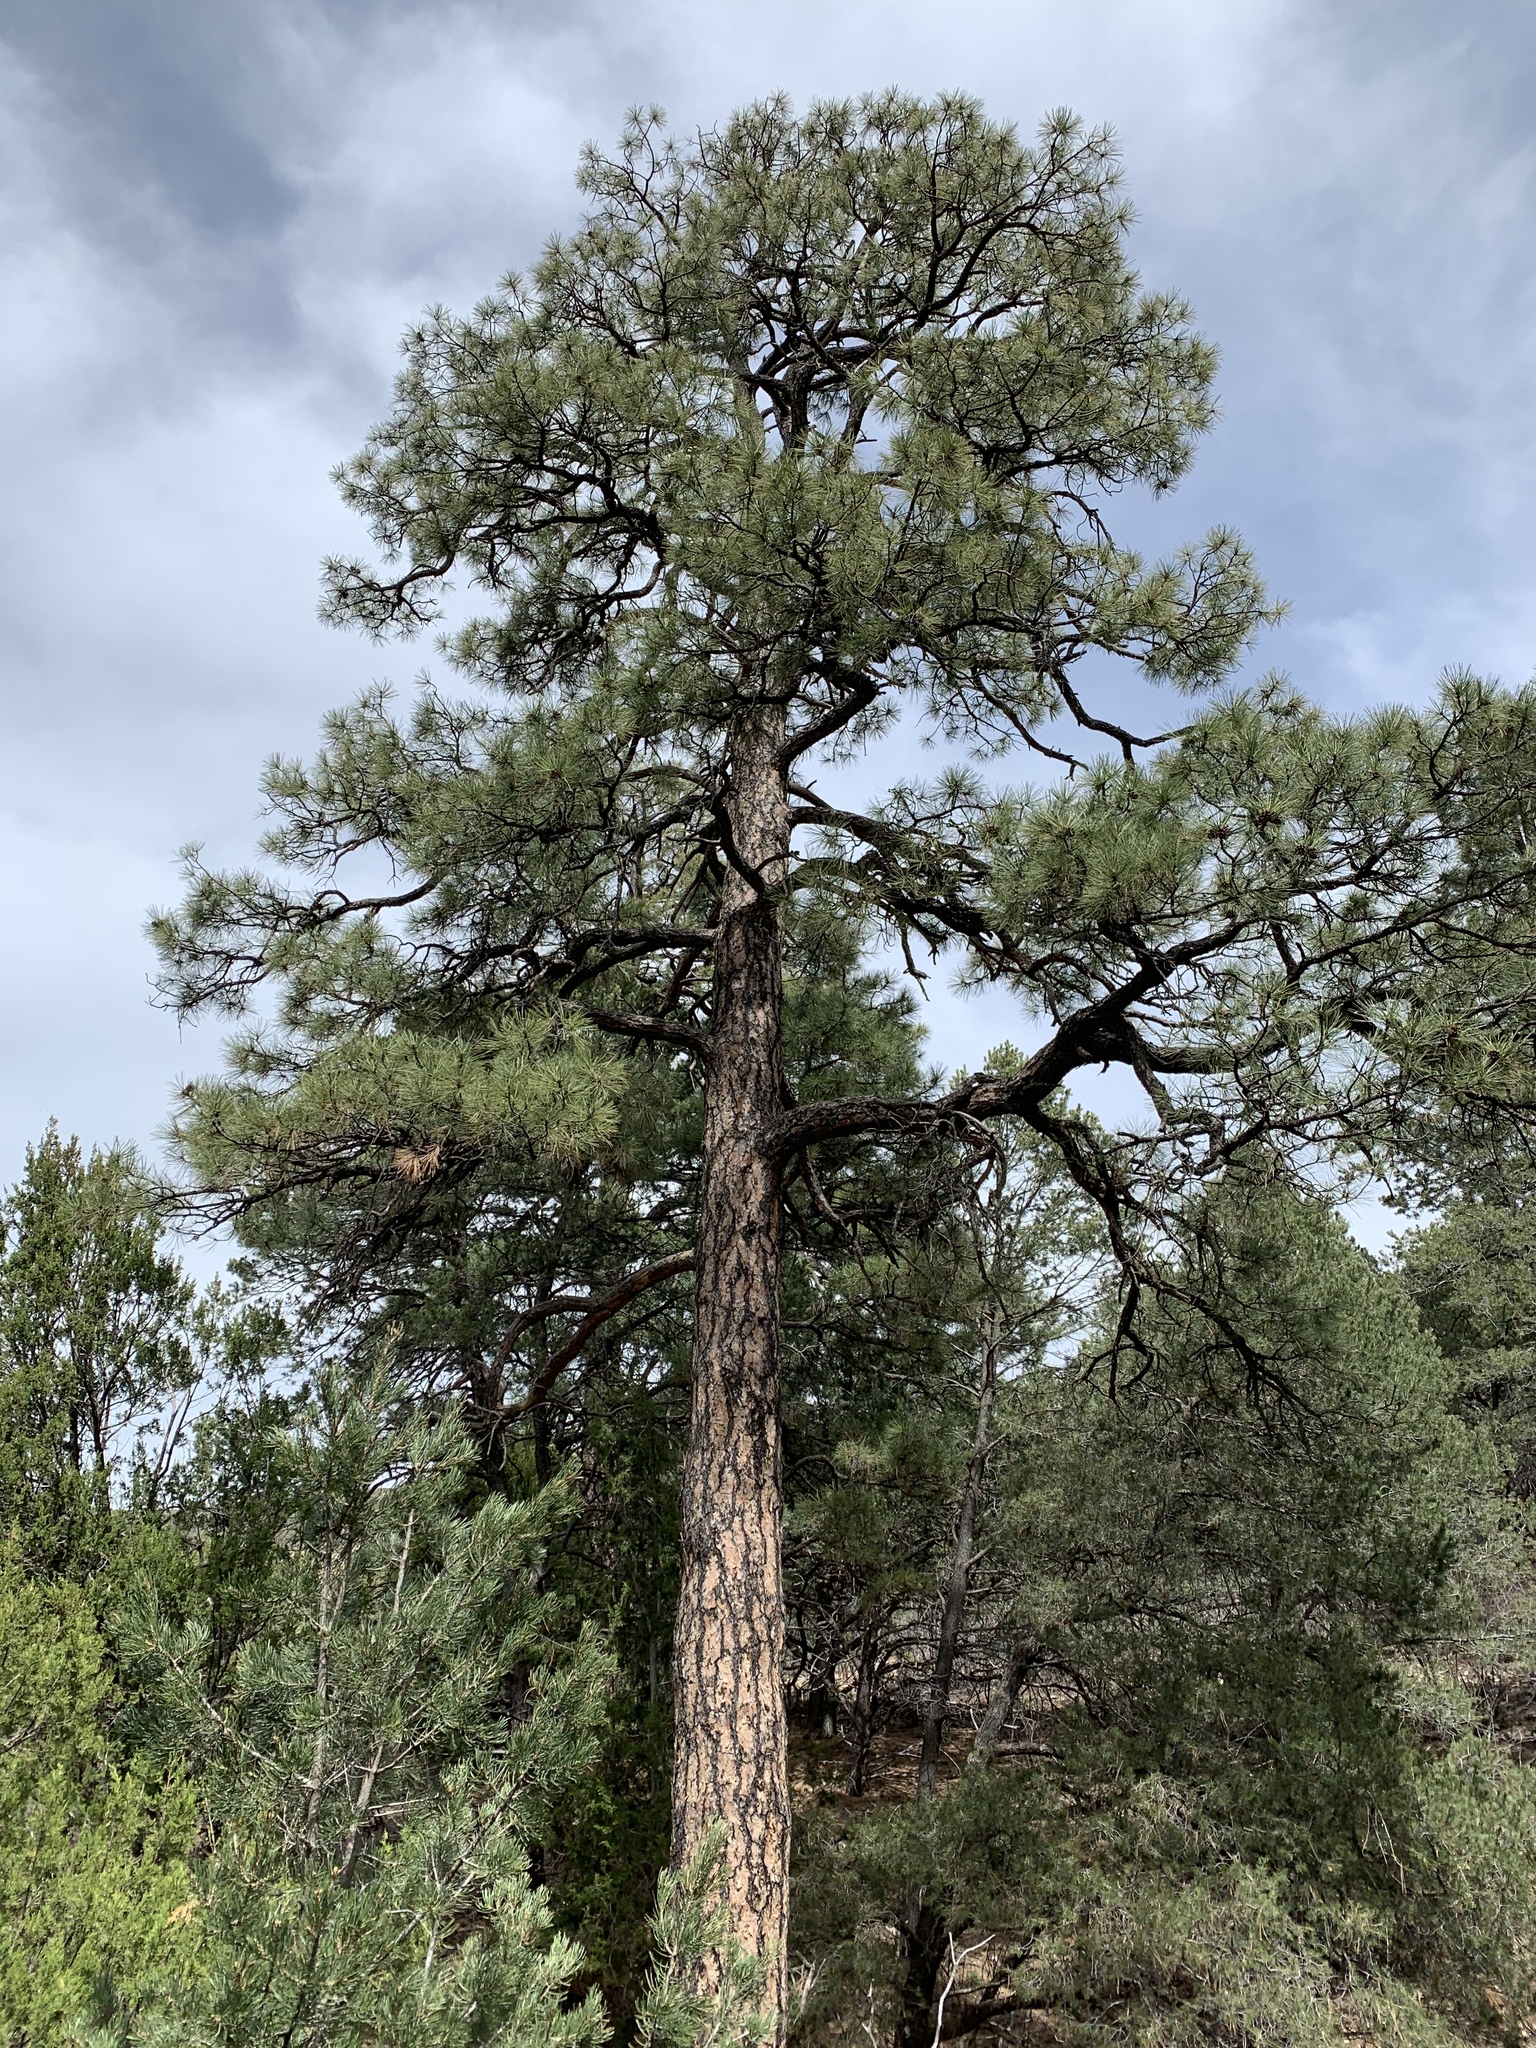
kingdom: Plantae
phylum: Tracheophyta
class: Pinopsida
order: Pinales
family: Pinaceae
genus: Pinus
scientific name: Pinus ponderosa
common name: Western yellow-pine
